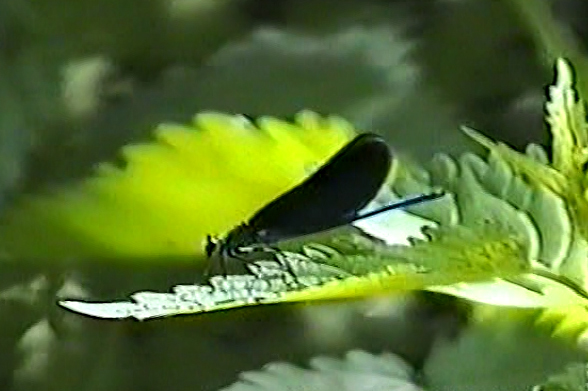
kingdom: Animalia
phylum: Arthropoda
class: Insecta
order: Odonata
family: Calopterygidae
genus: Calopteryx
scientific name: Calopteryx virgo
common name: Beautiful demoiselle
